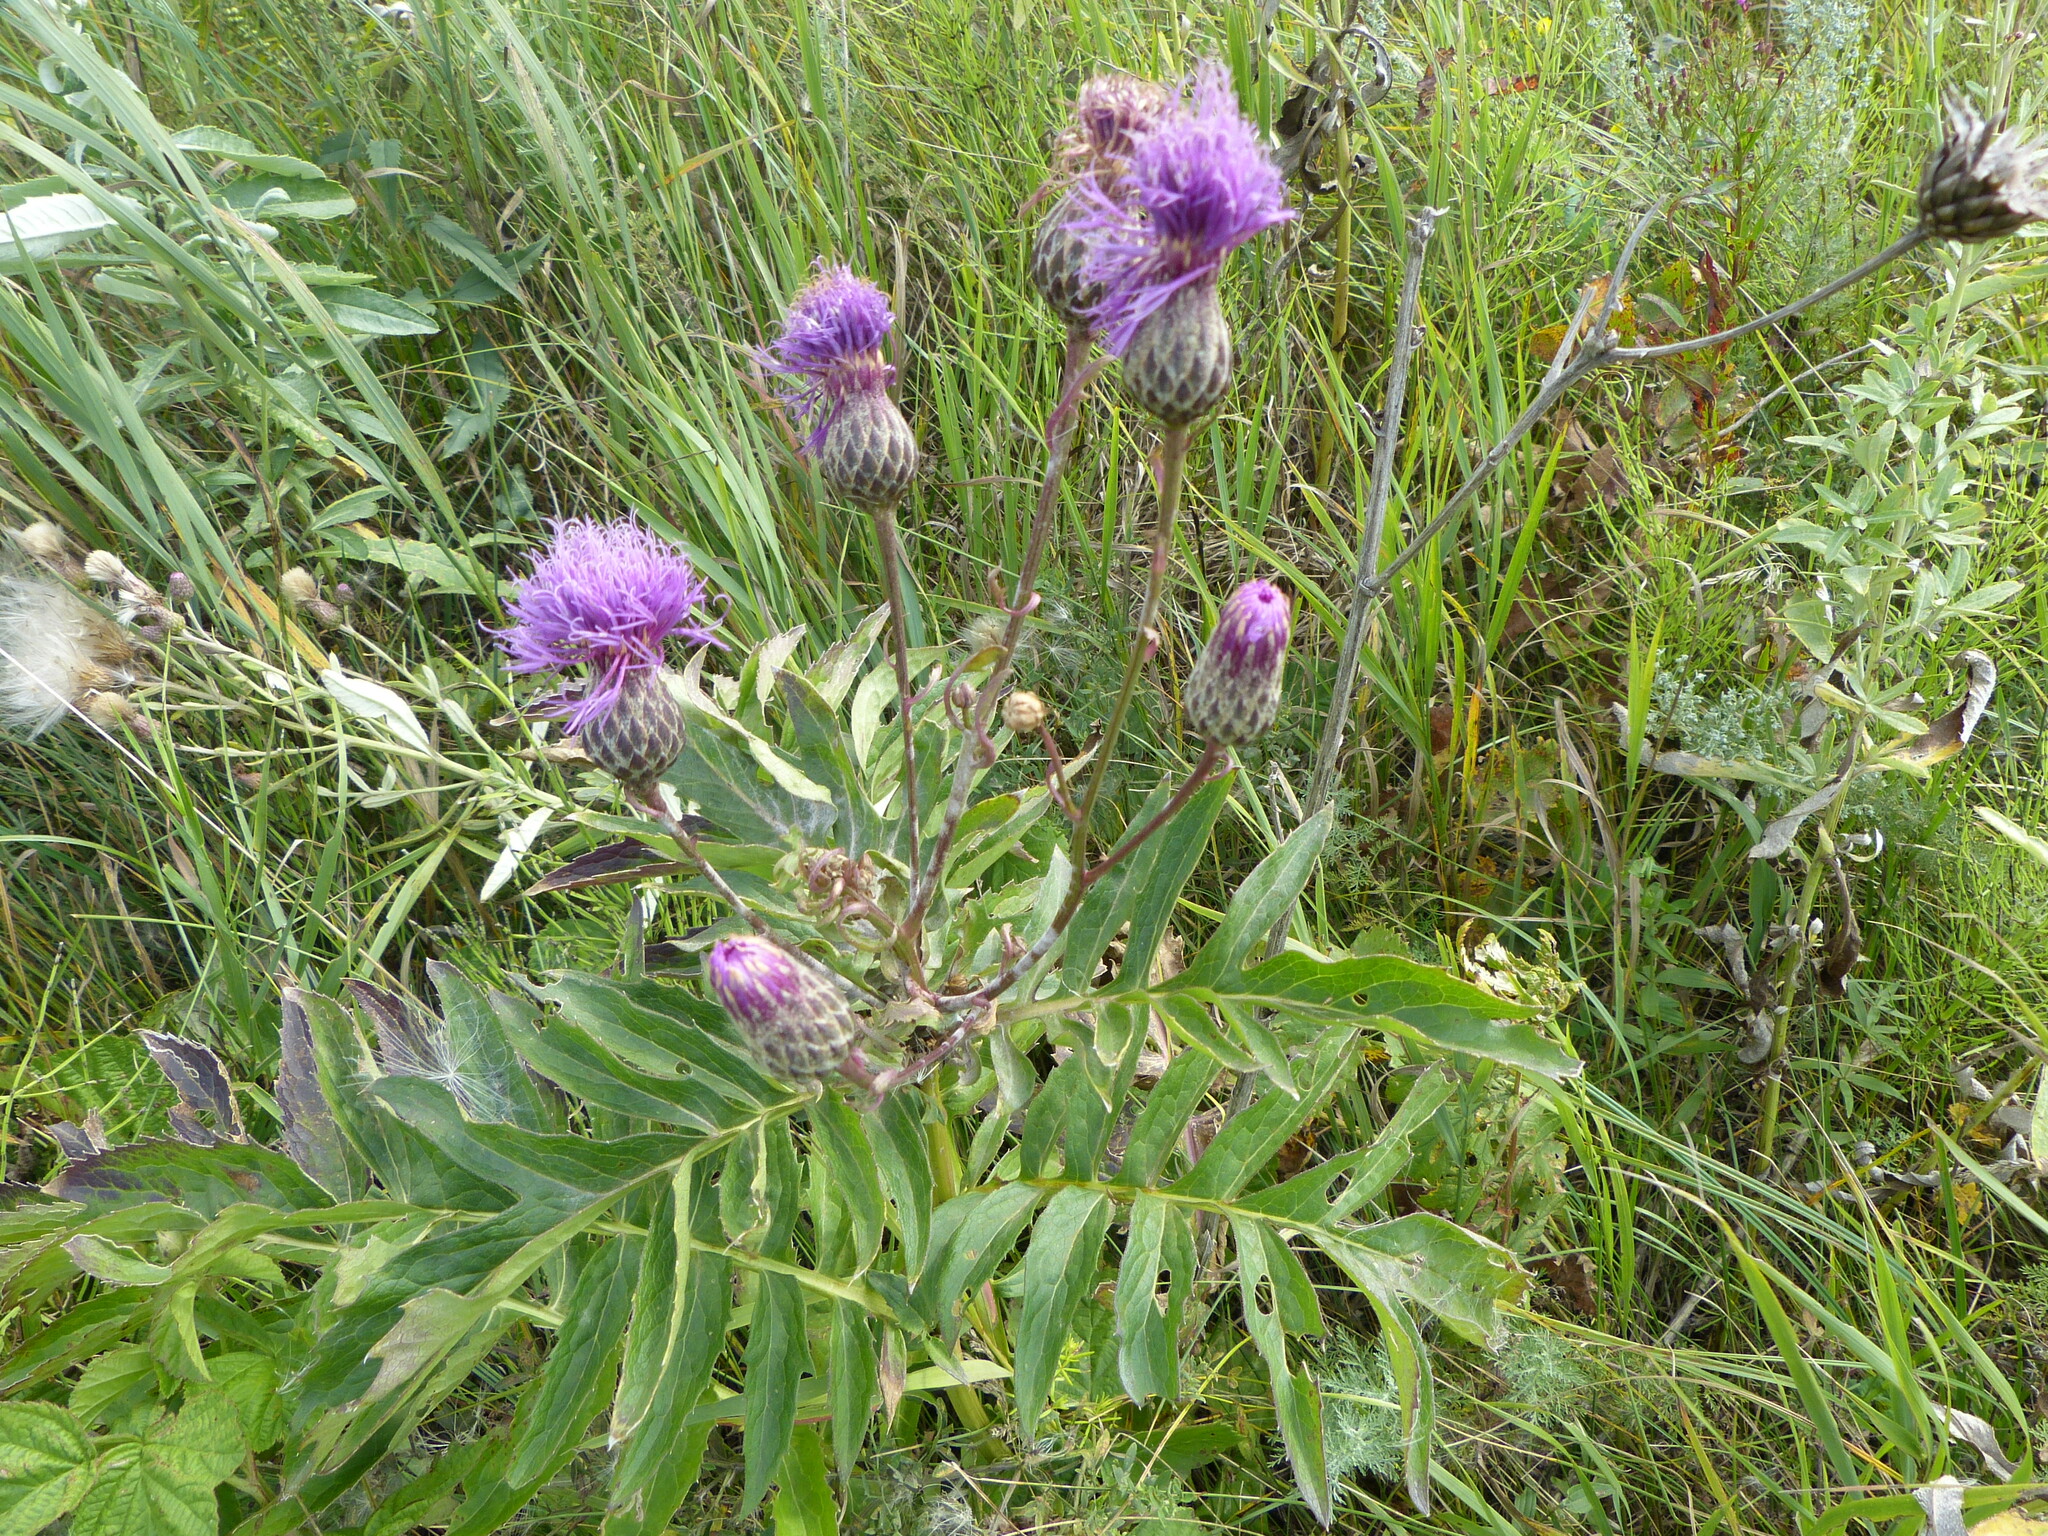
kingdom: Plantae
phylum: Tracheophyta
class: Magnoliopsida
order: Asterales
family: Asteraceae
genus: Serratula
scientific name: Serratula coronata
